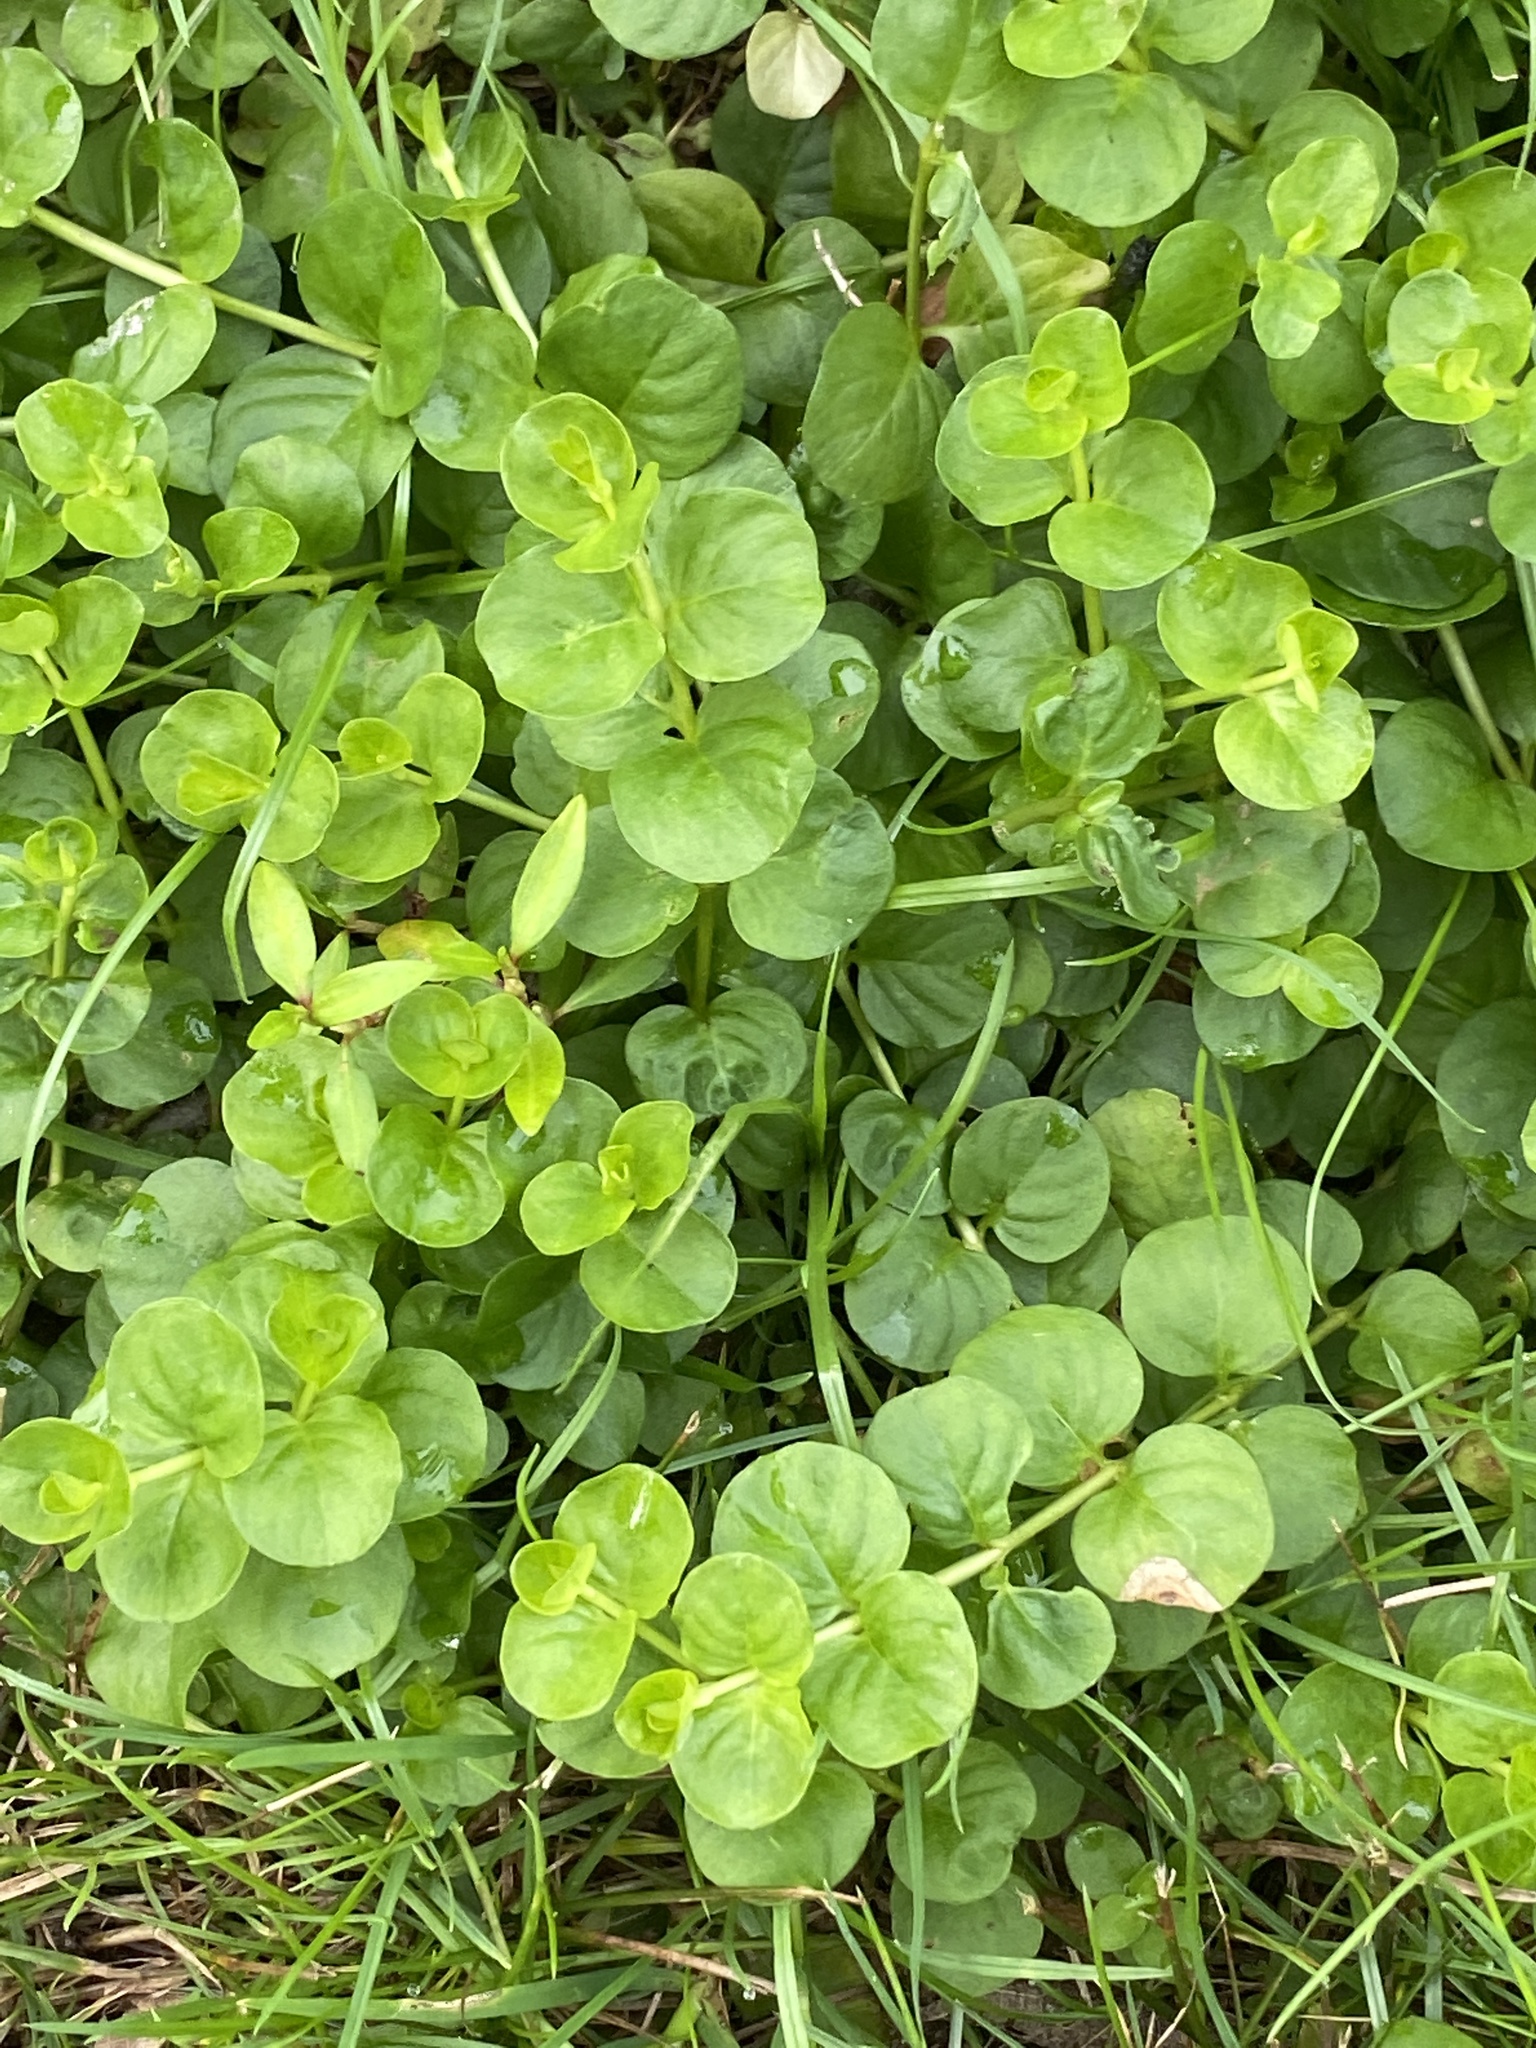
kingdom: Plantae
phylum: Tracheophyta
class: Magnoliopsida
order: Ericales
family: Primulaceae
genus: Lysimachia
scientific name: Lysimachia nummularia
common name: Moneywort
